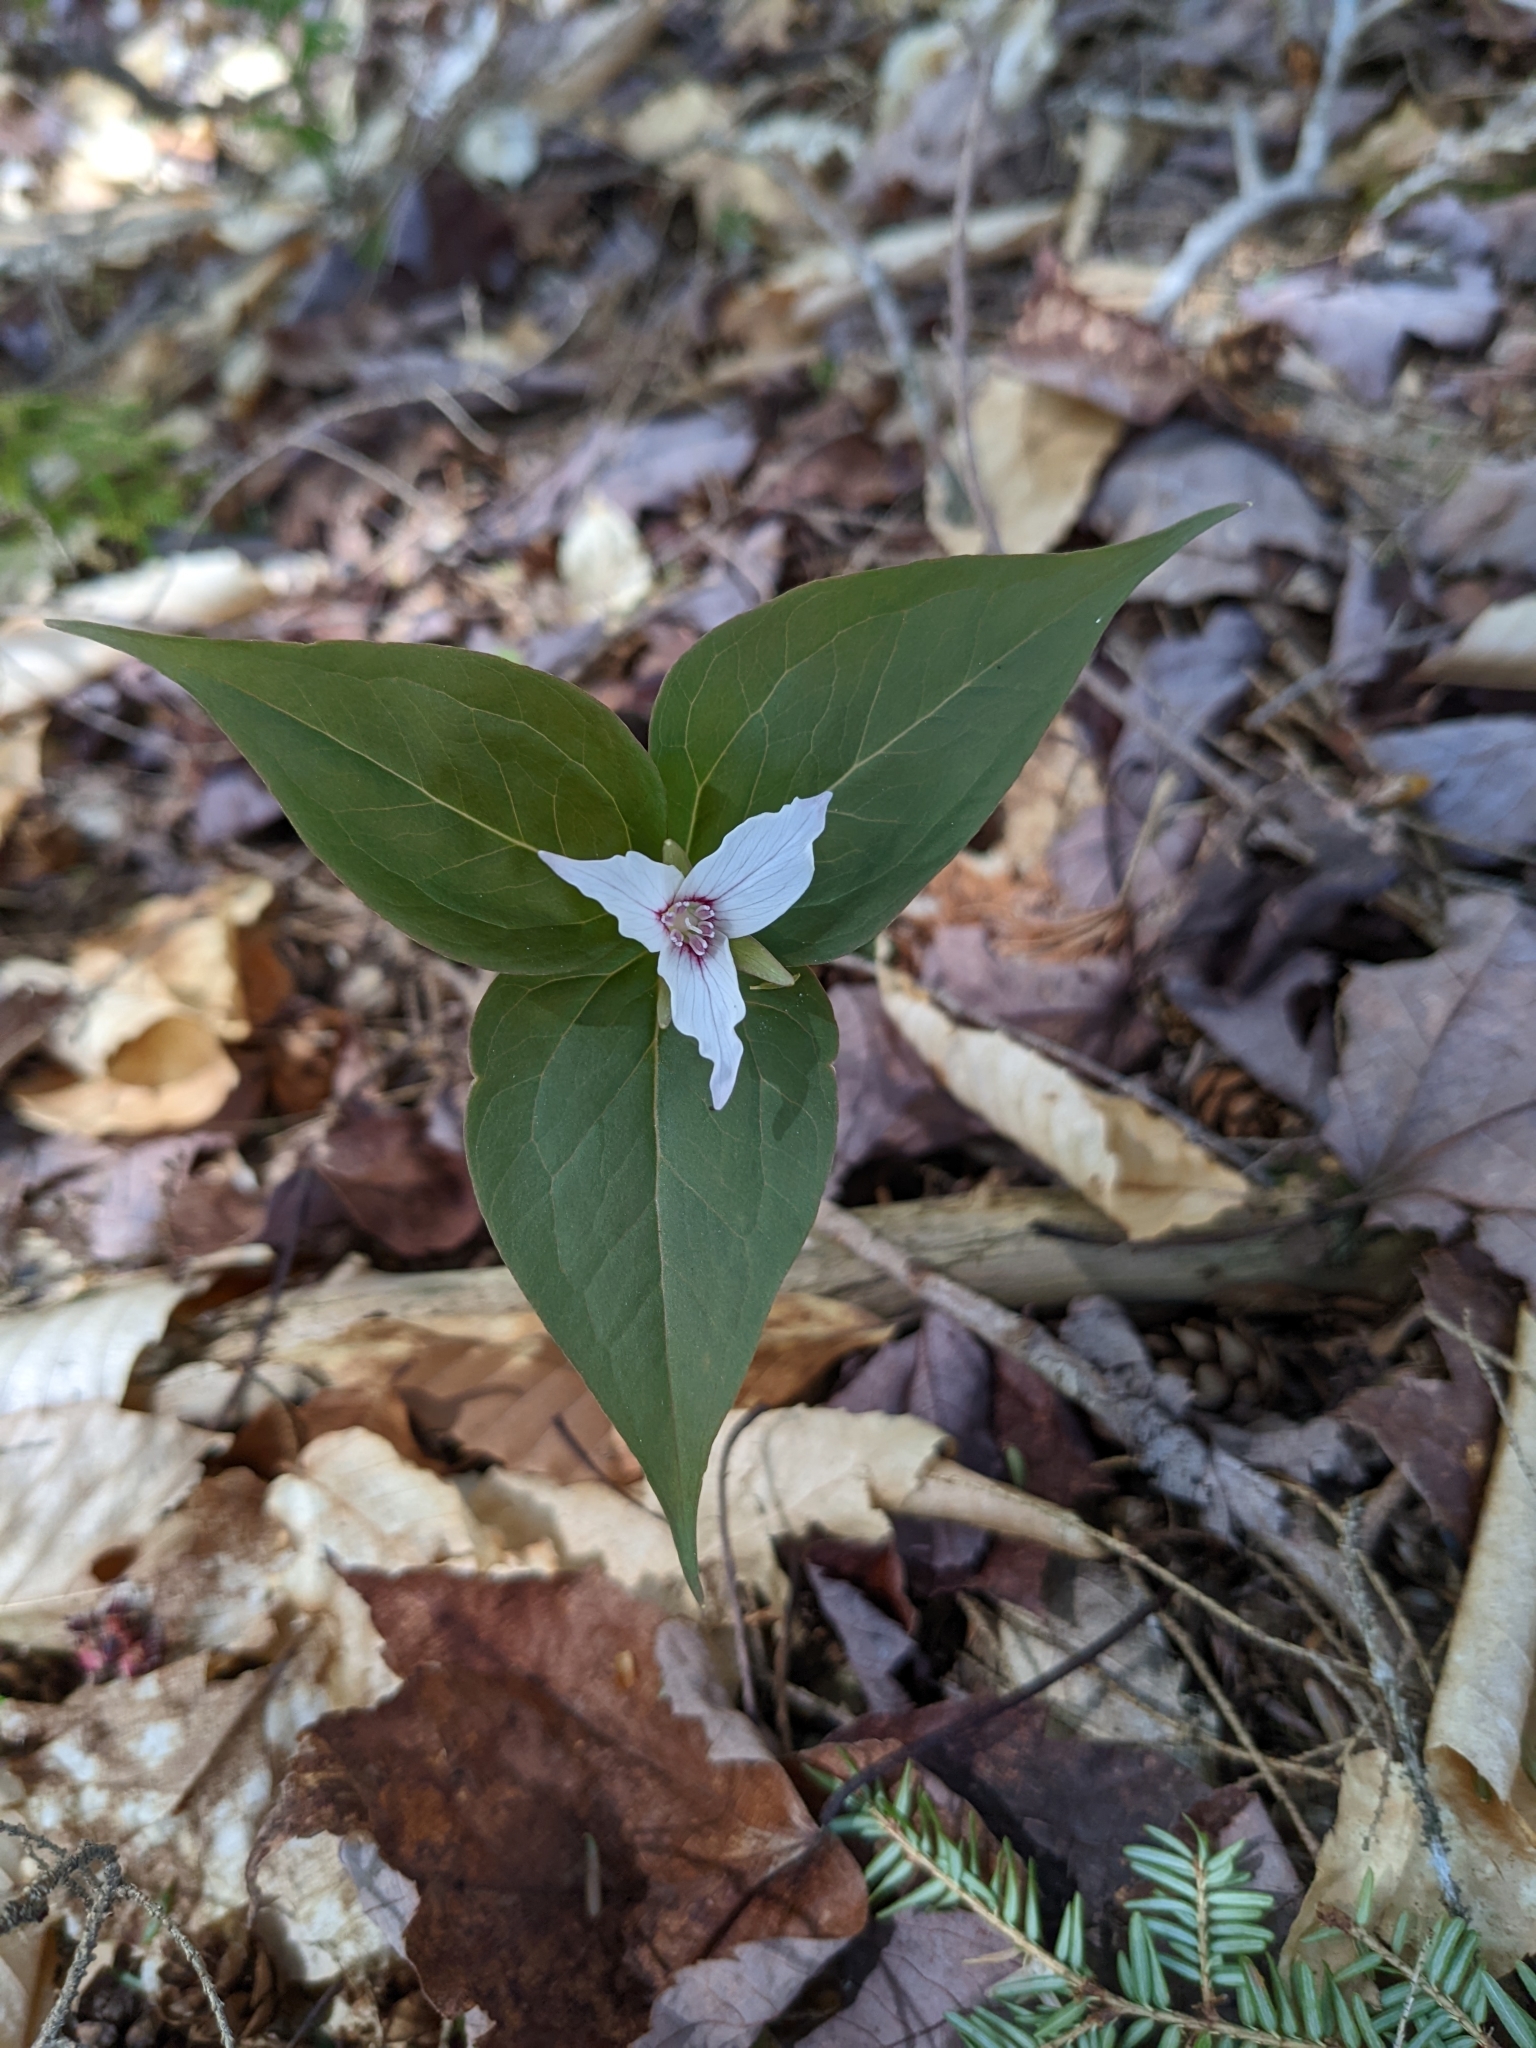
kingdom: Plantae
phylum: Tracheophyta
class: Liliopsida
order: Liliales
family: Melanthiaceae
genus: Trillium
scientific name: Trillium undulatum
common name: Paint trillium
